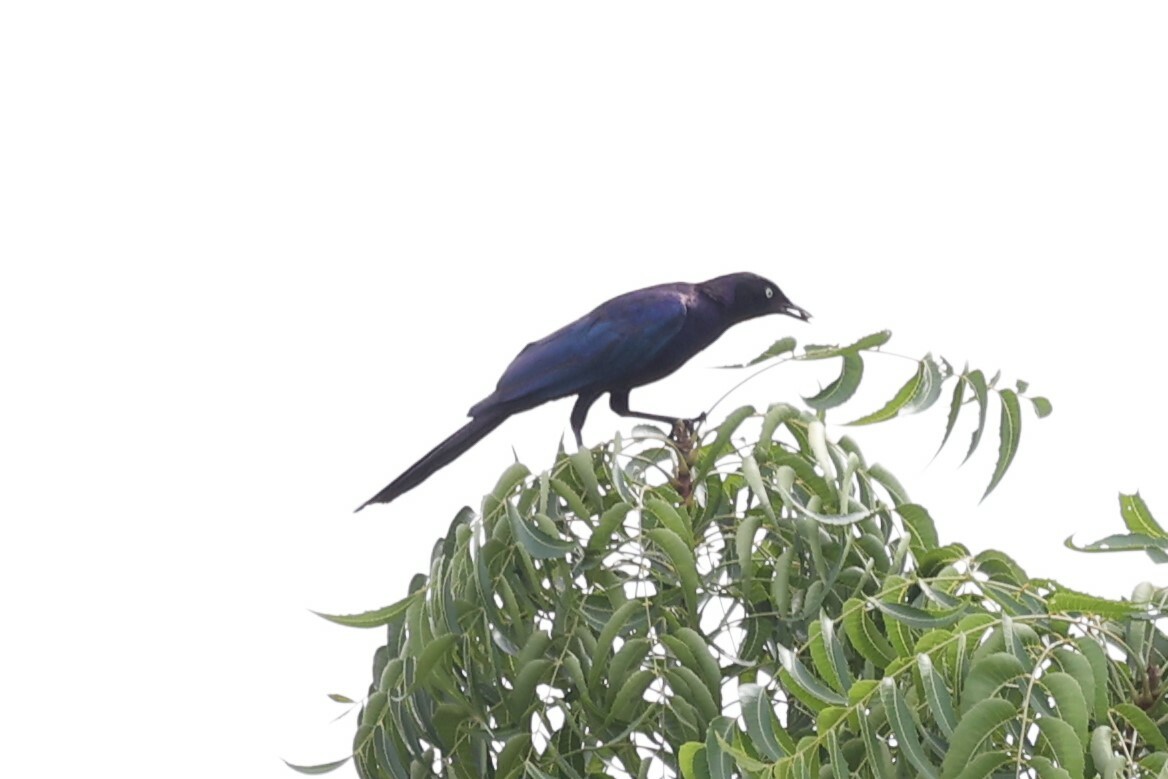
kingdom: Animalia
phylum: Chordata
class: Aves
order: Passeriformes
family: Sturnidae
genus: Lamprotornis
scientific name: Lamprotornis purpuroptera
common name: Rüppell's starling
